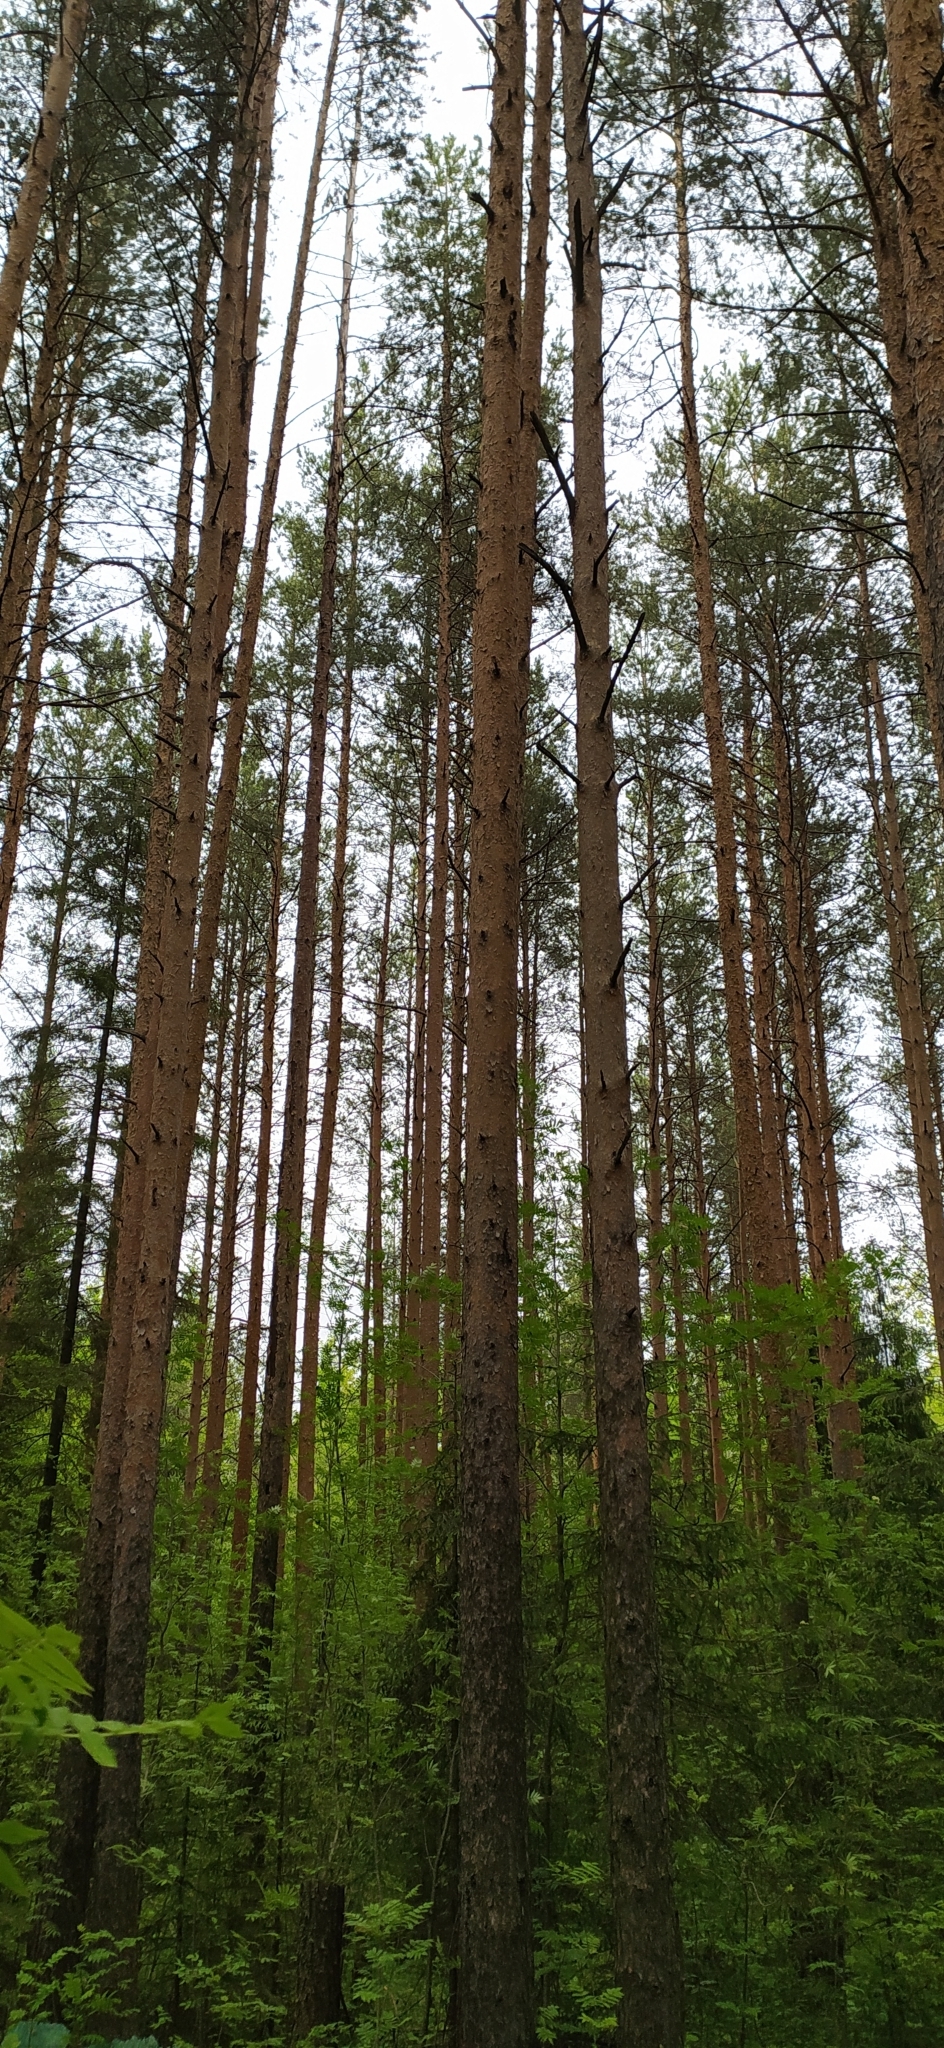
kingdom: Plantae
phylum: Tracheophyta
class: Pinopsida
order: Pinales
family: Pinaceae
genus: Pinus
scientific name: Pinus sylvestris
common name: Scots pine
